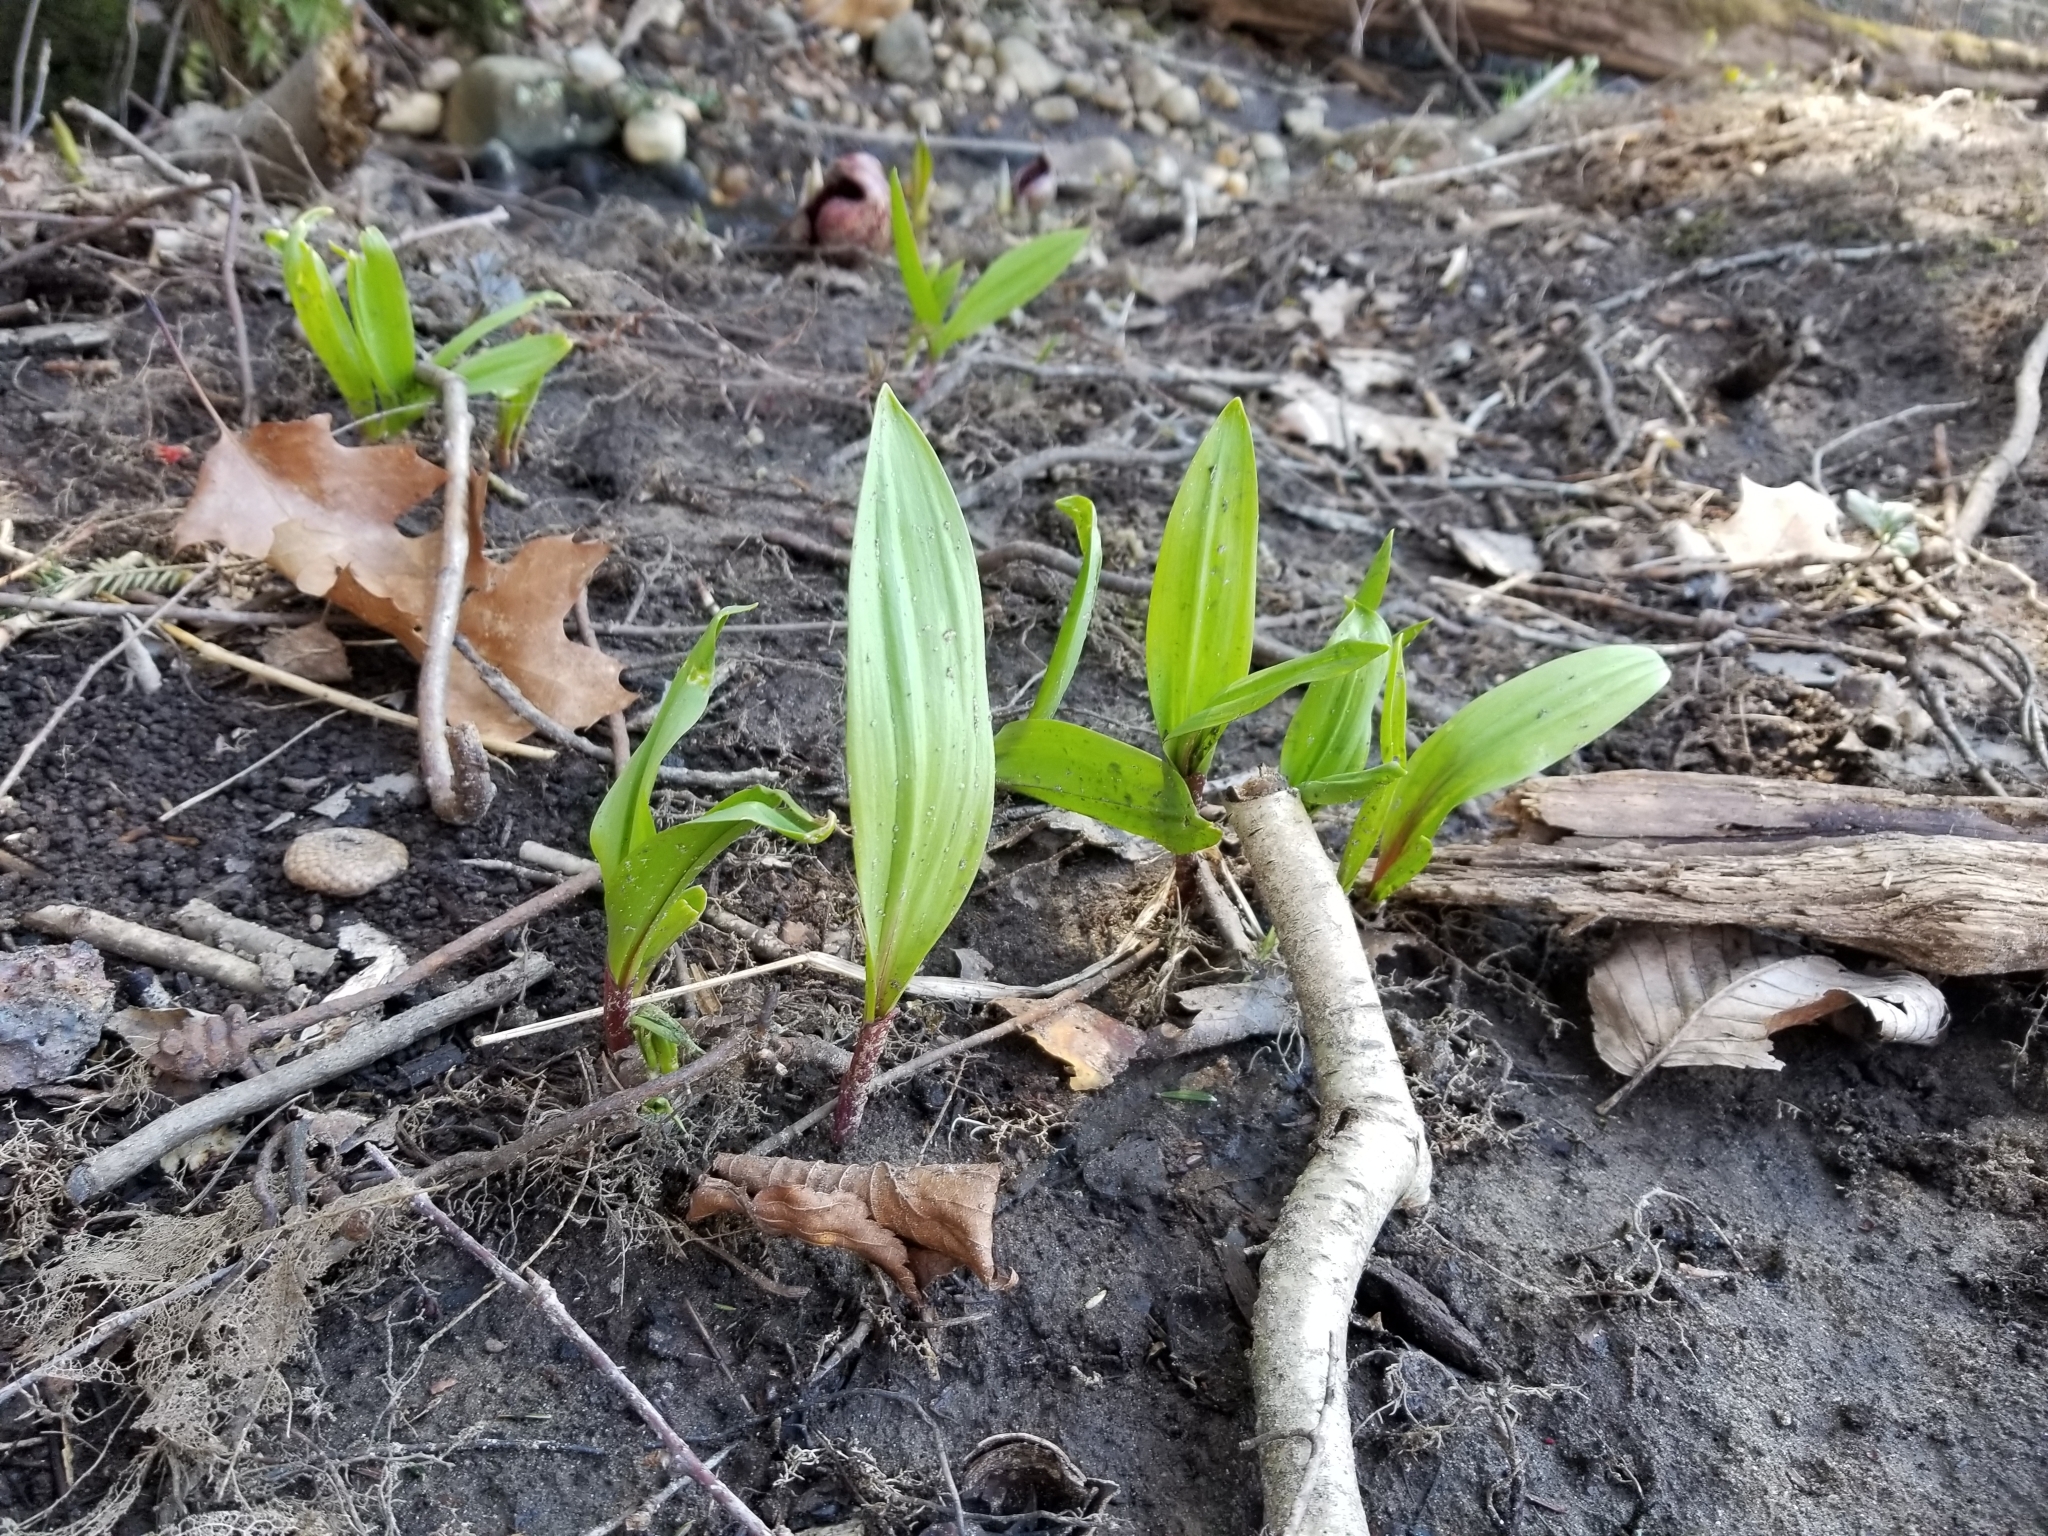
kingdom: Plantae
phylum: Tracheophyta
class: Liliopsida
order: Asparagales
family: Amaryllidaceae
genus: Allium
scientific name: Allium tricoccum
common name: Ramp
